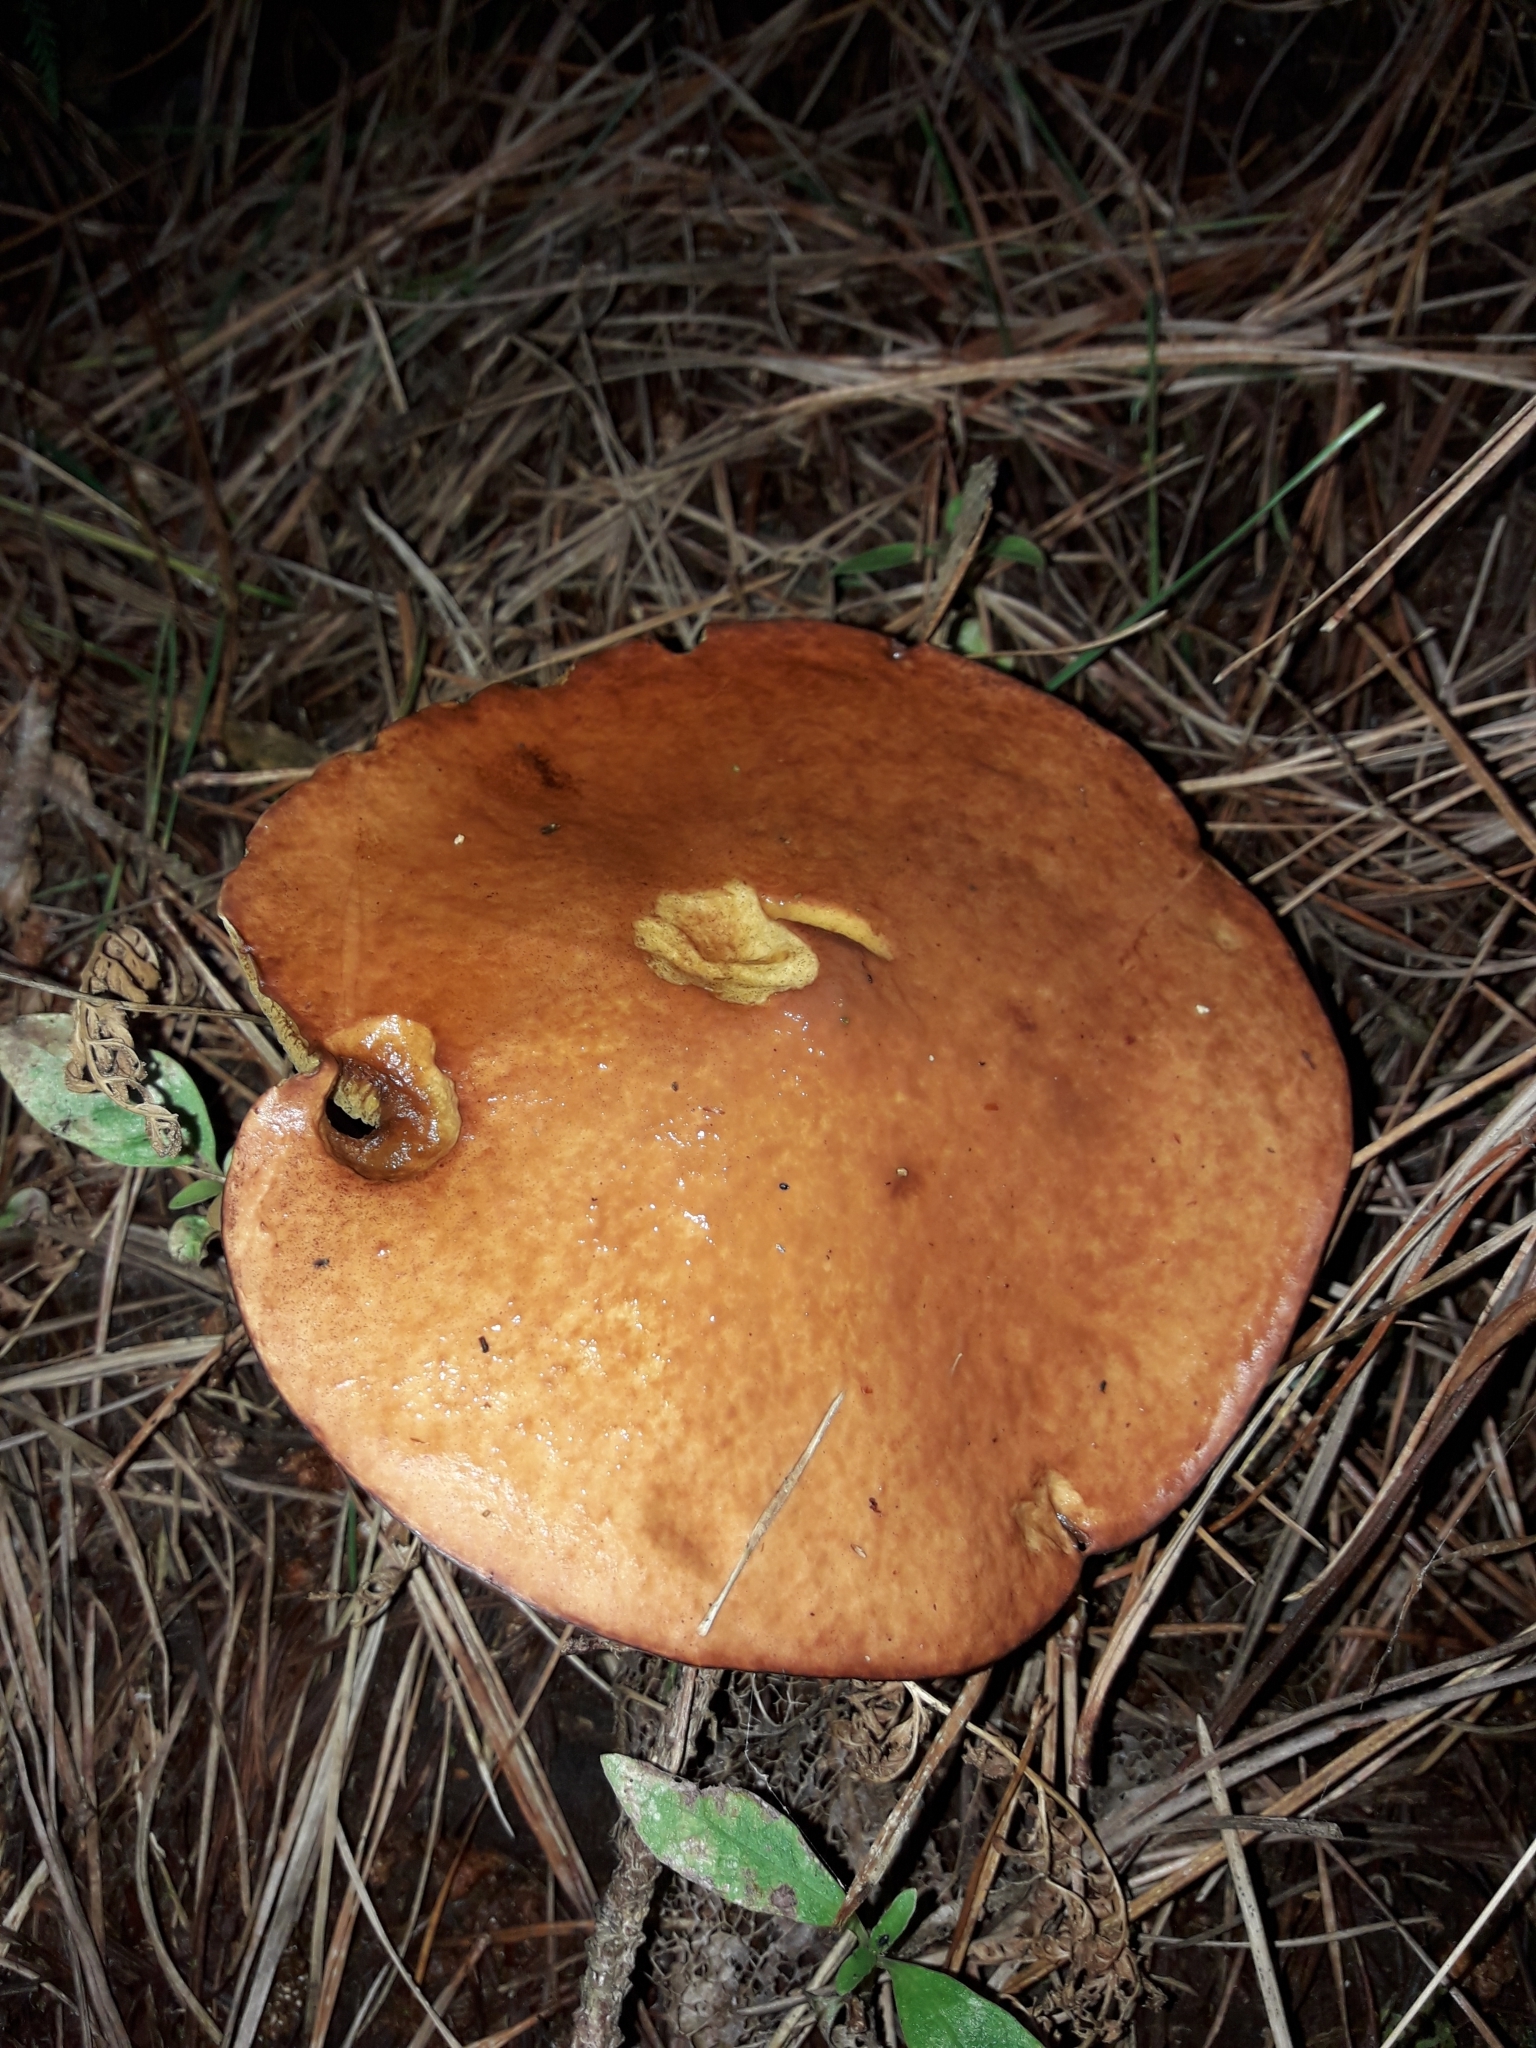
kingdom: Fungi
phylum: Basidiomycota
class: Agaricomycetes
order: Boletales
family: Suillaceae
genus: Suillus
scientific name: Suillus granulatus
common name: Weeping bolete
